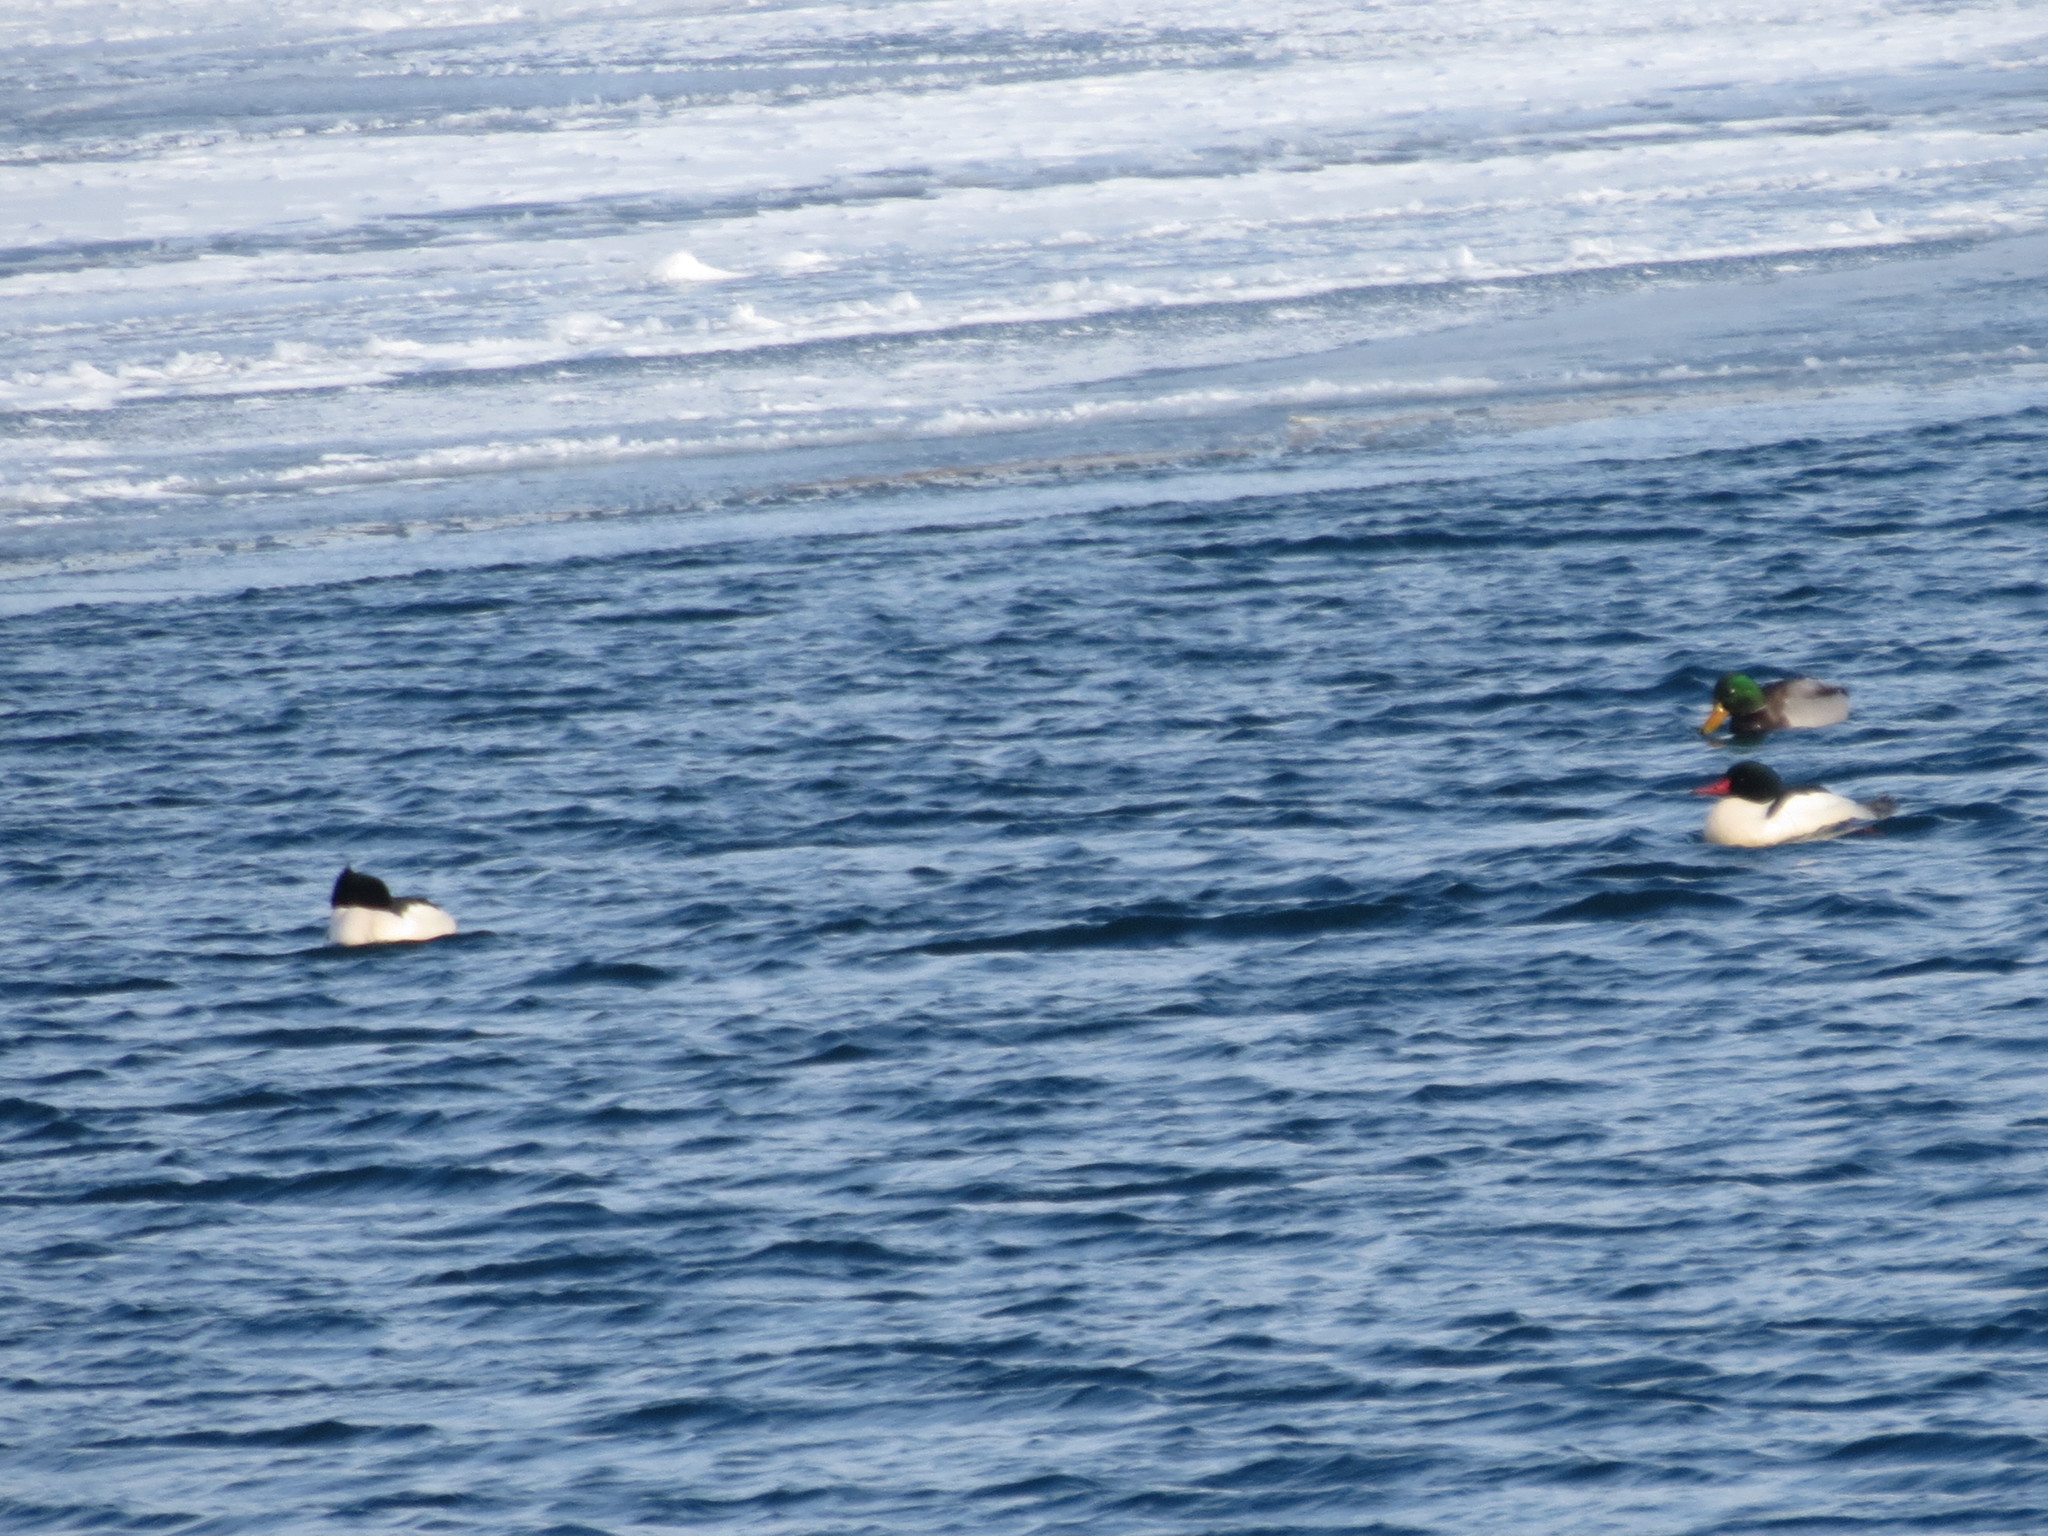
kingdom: Animalia
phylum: Chordata
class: Aves
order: Anseriformes
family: Anatidae
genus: Mergus
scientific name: Mergus merganser
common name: Common merganser
